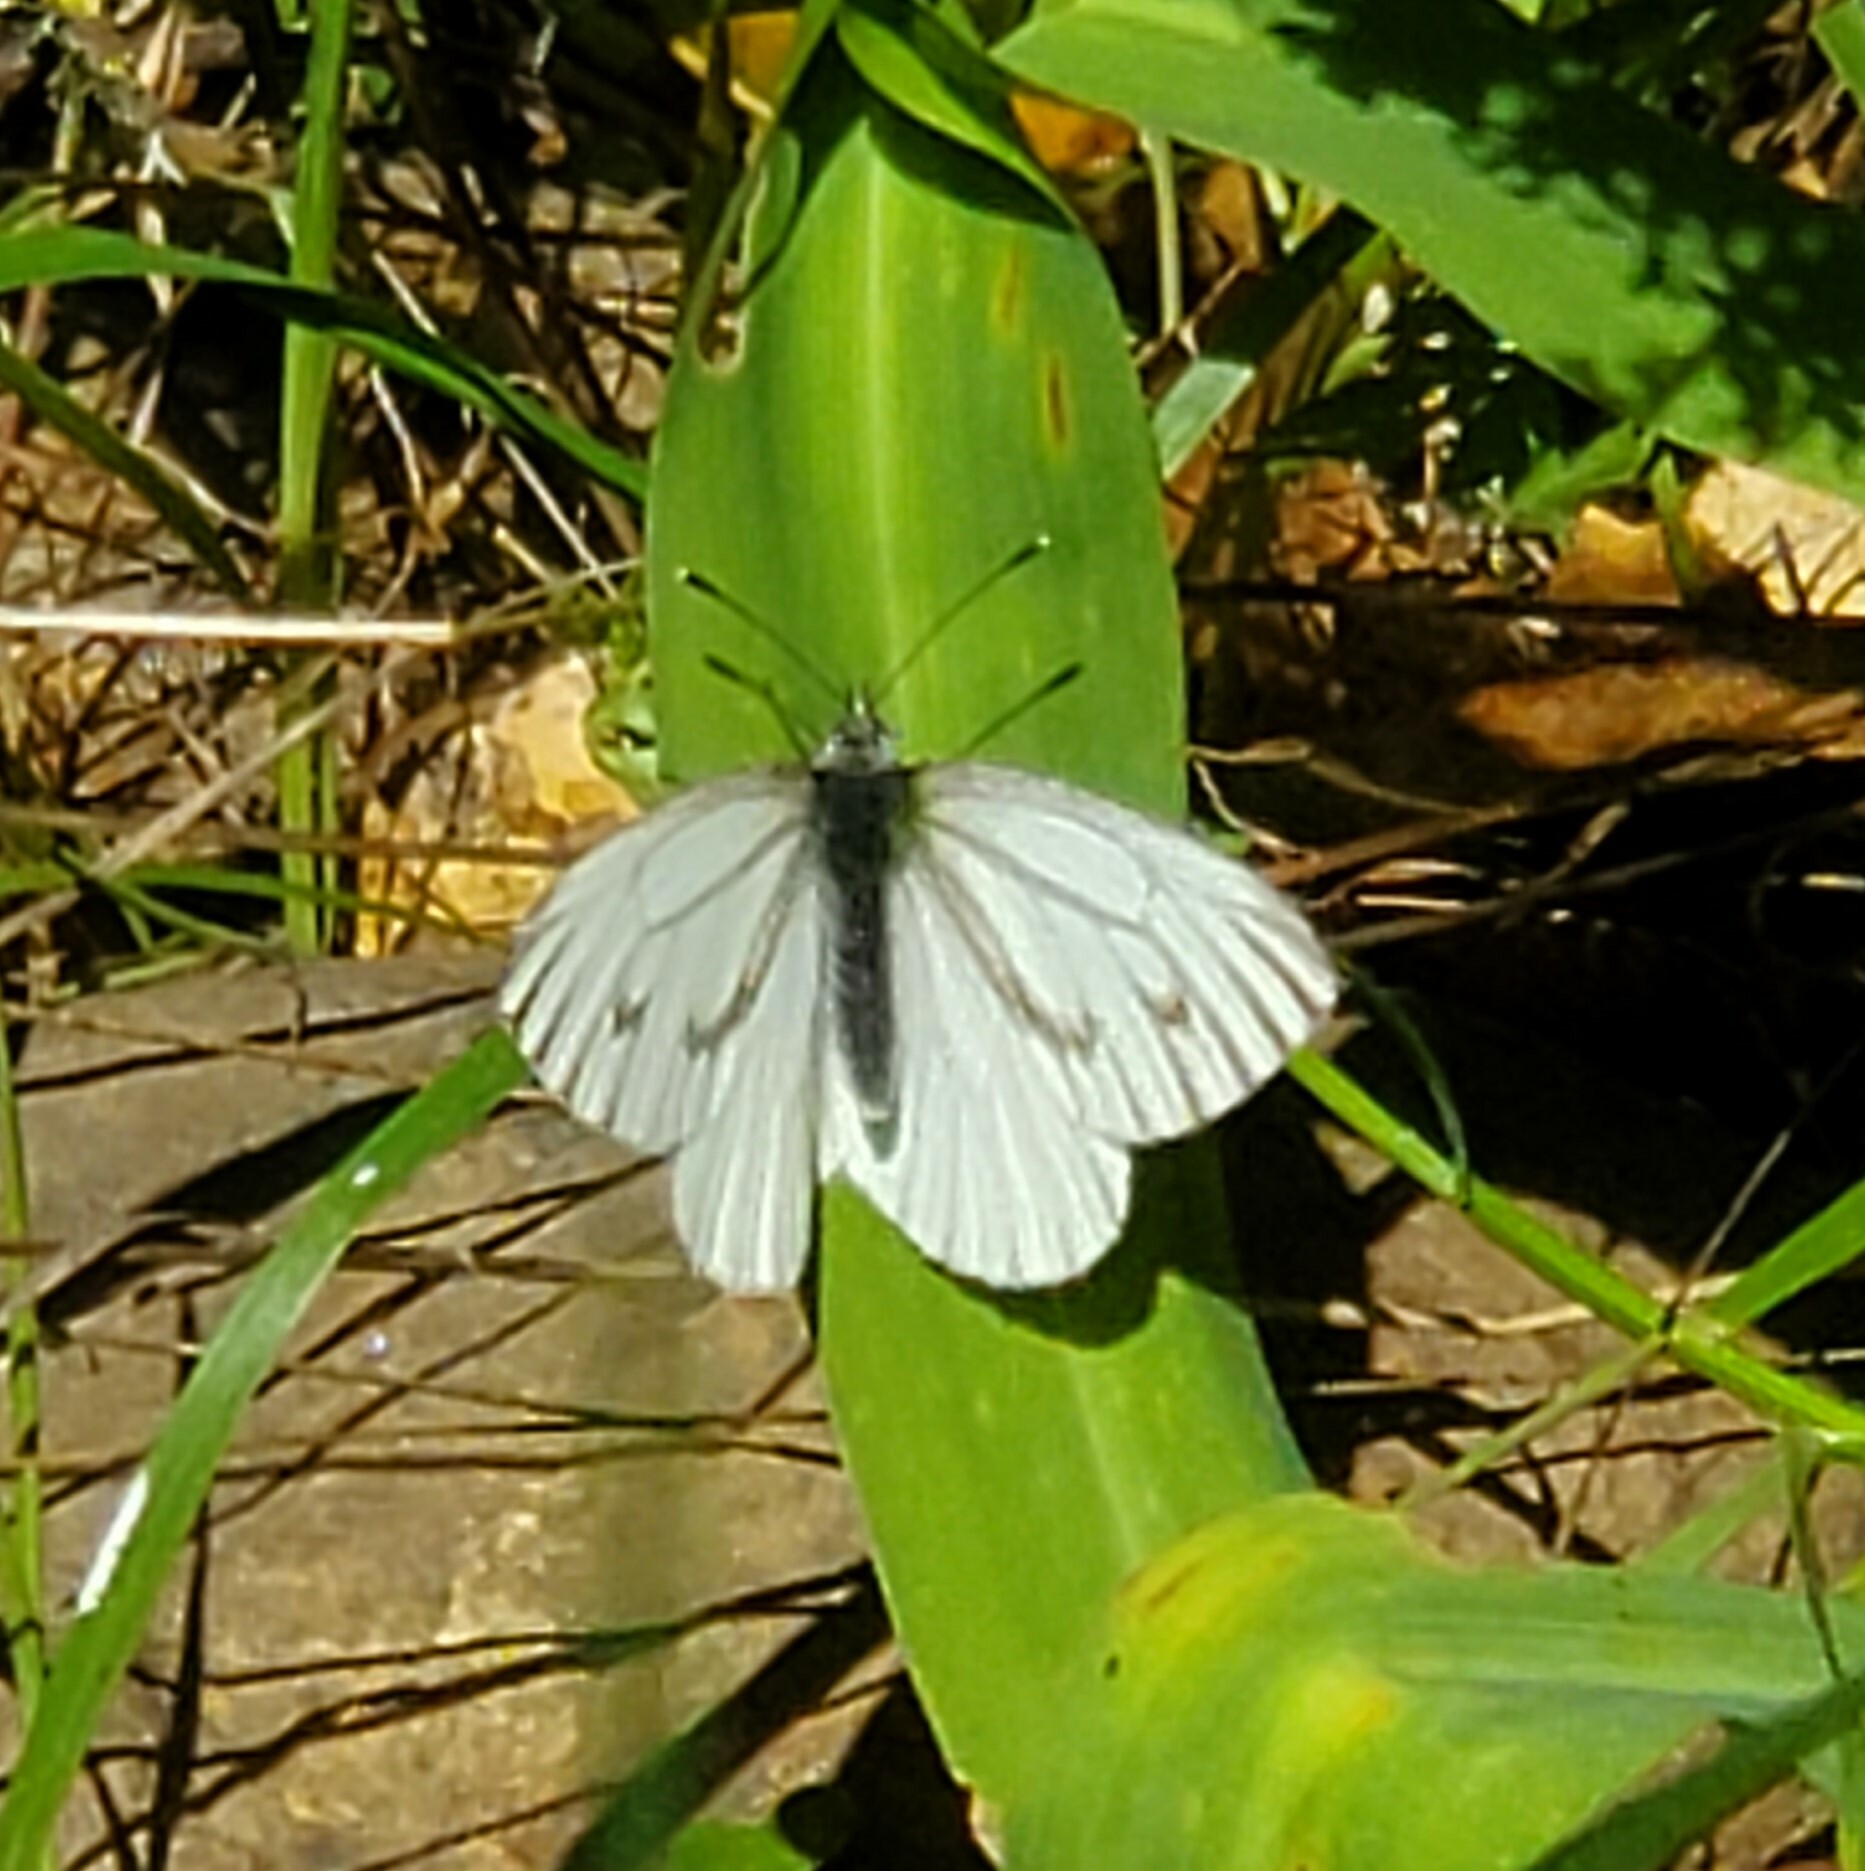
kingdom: Animalia
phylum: Arthropoda
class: Insecta
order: Lepidoptera
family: Pieridae
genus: Pieris
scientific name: Pieris marginalis
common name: Margined white
